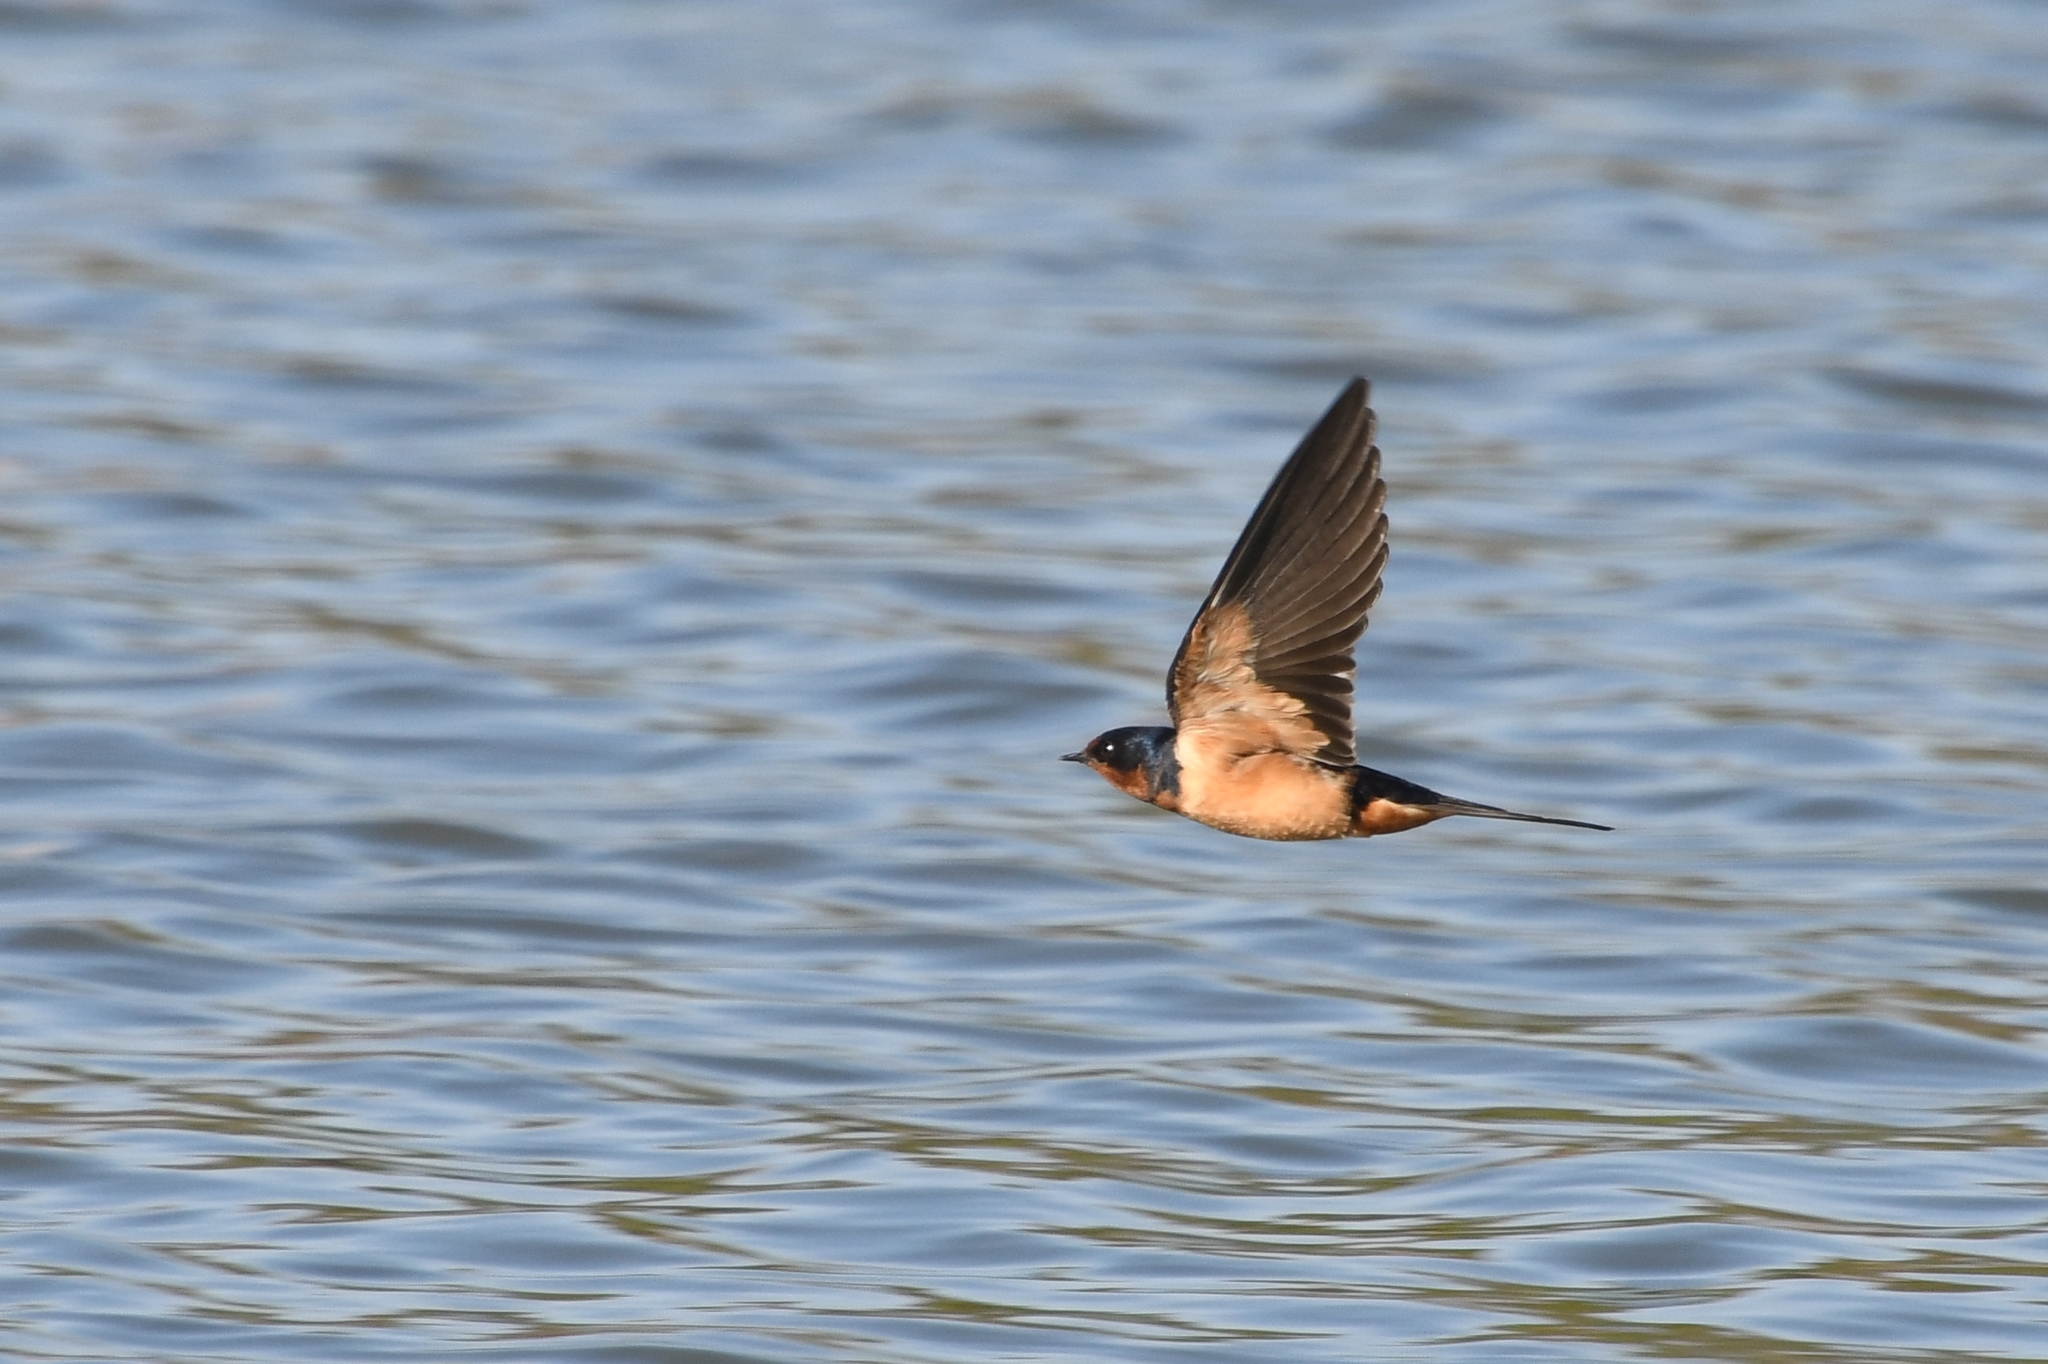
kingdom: Animalia
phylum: Chordata
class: Aves
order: Passeriformes
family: Hirundinidae
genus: Hirundo
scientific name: Hirundo rustica
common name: Barn swallow
